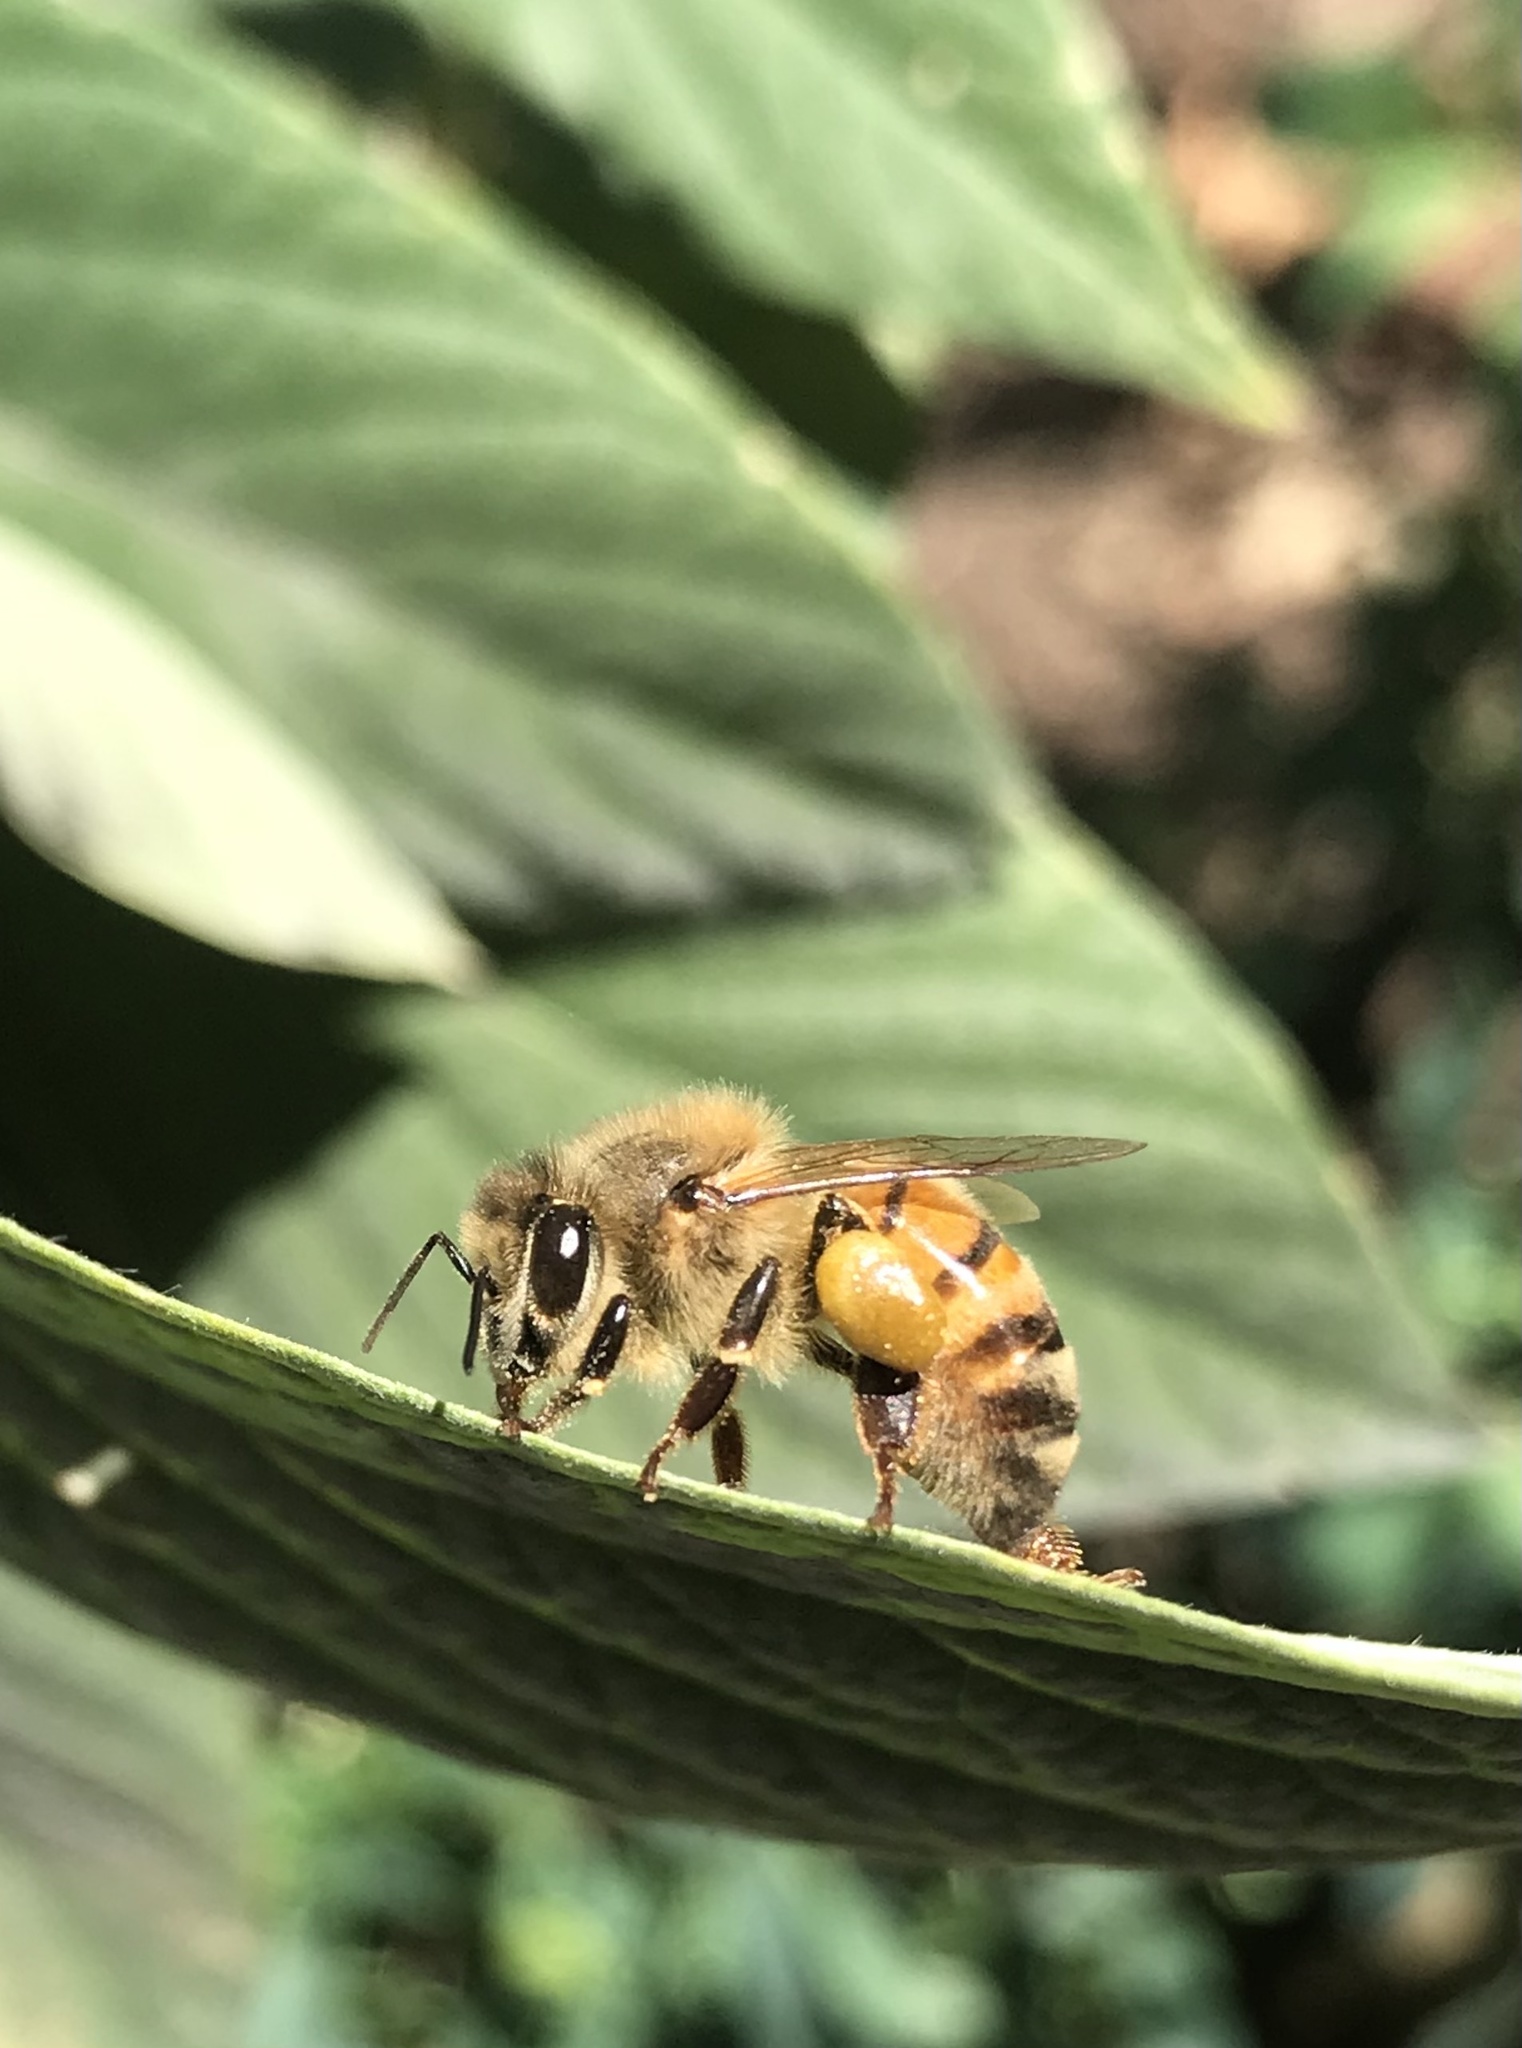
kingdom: Animalia
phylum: Arthropoda
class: Insecta
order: Hymenoptera
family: Apidae
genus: Apis
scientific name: Apis mellifera
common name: Honey bee
